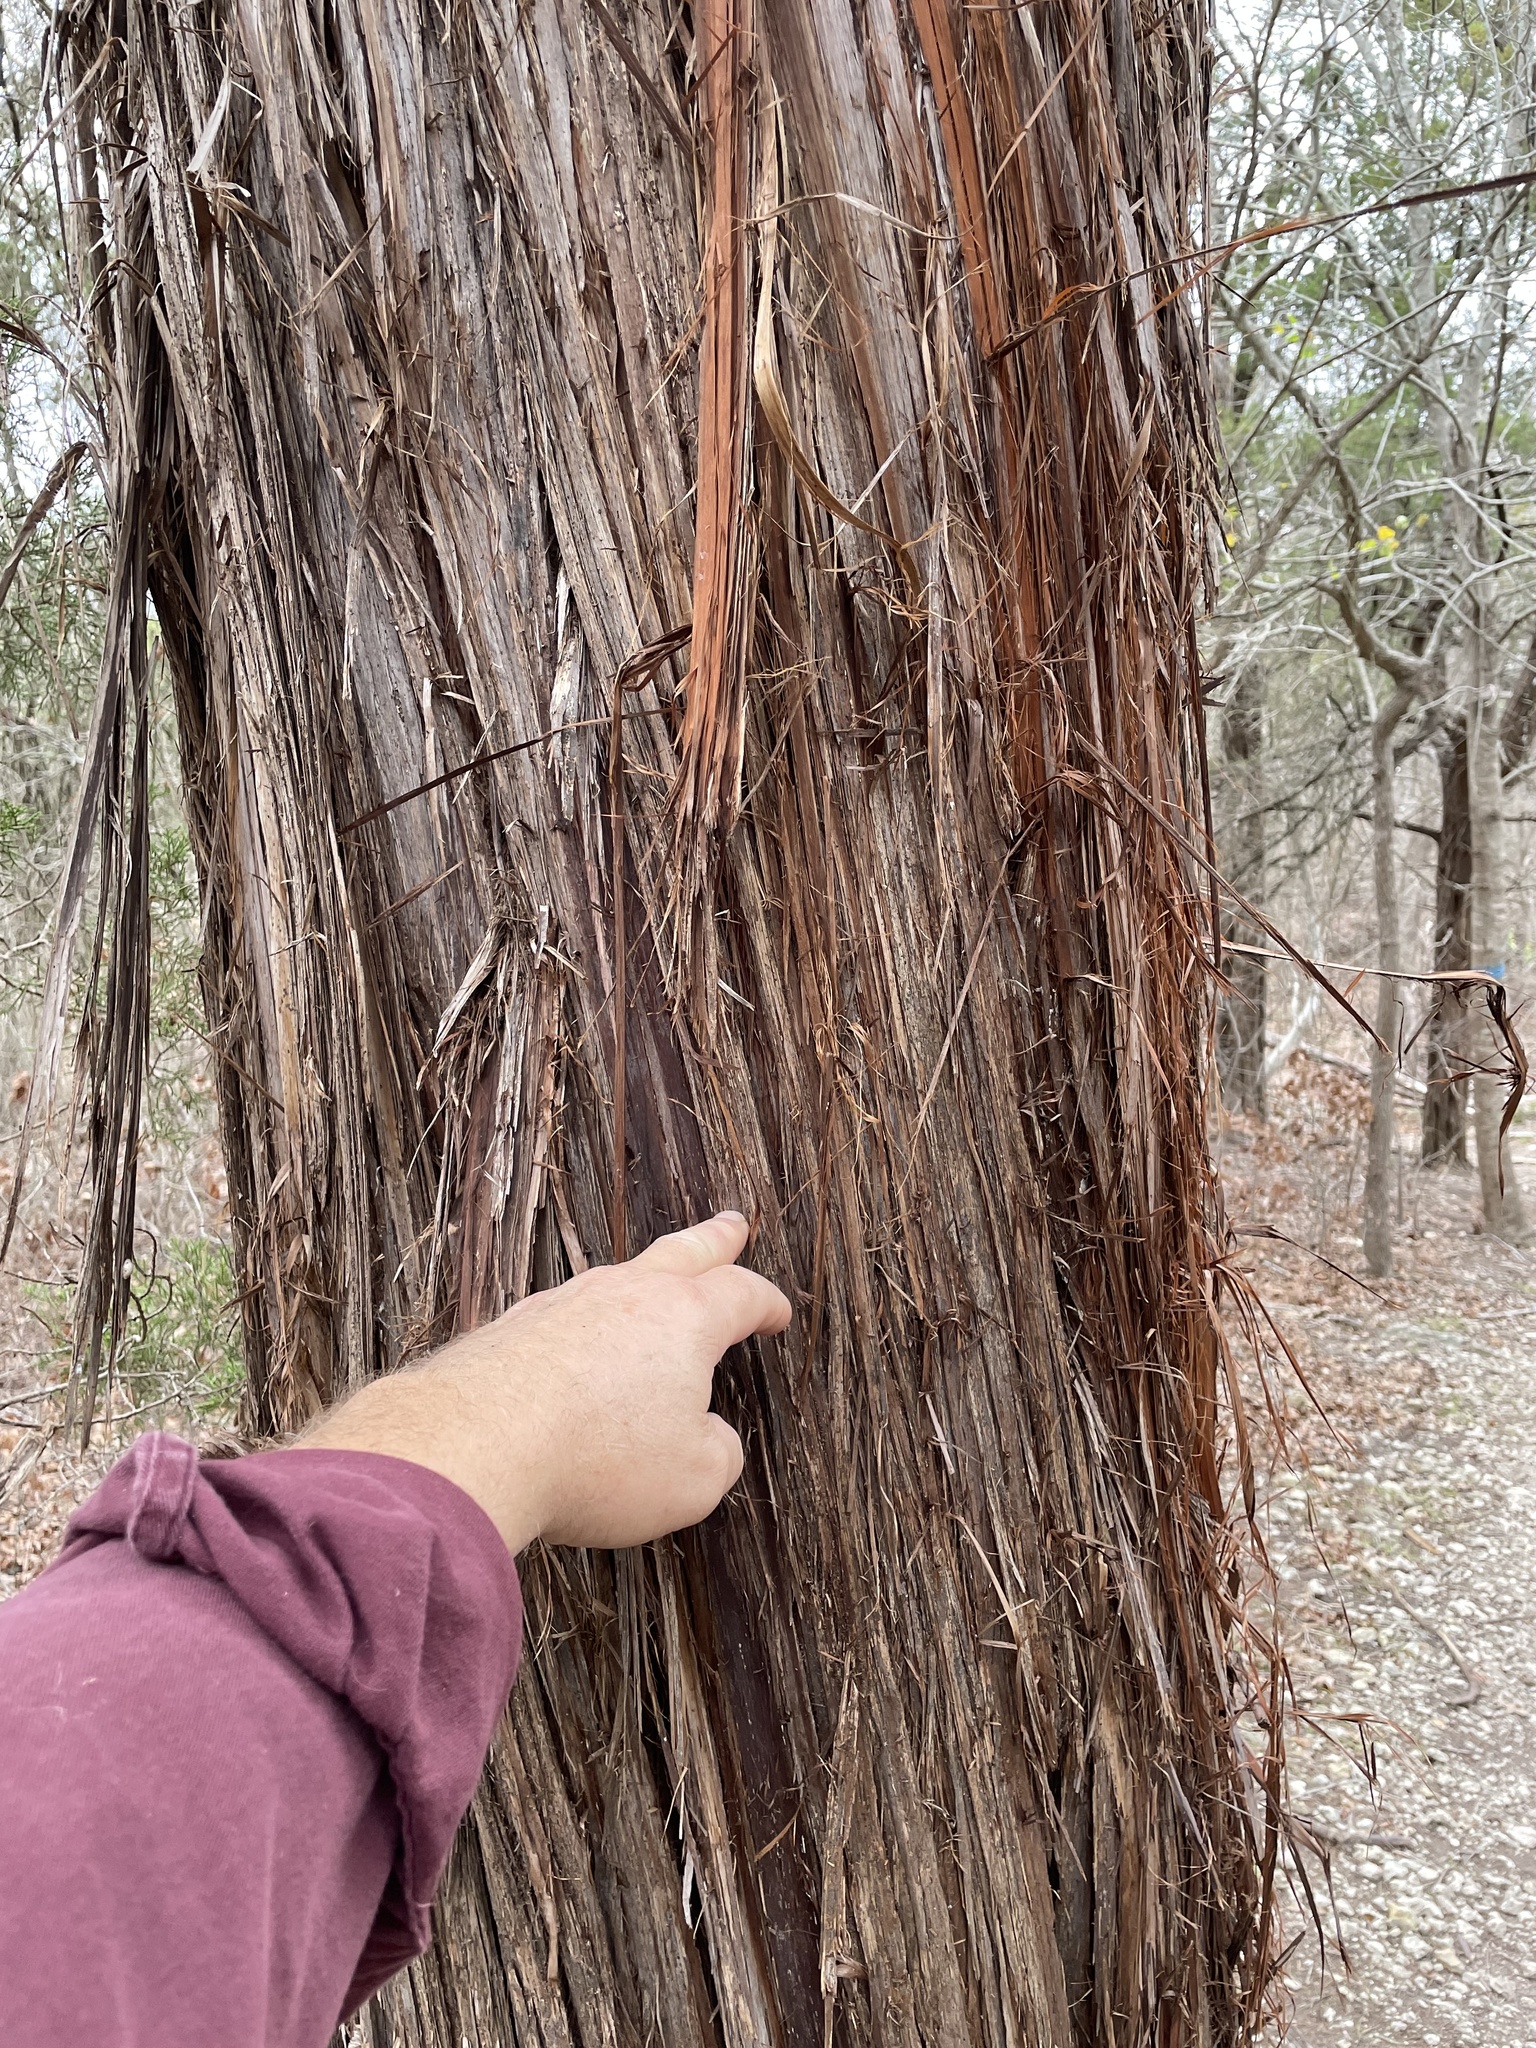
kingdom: Plantae
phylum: Tracheophyta
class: Pinopsida
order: Pinales
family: Cupressaceae
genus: Juniperus
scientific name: Juniperus ashei
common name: Mexican juniper
